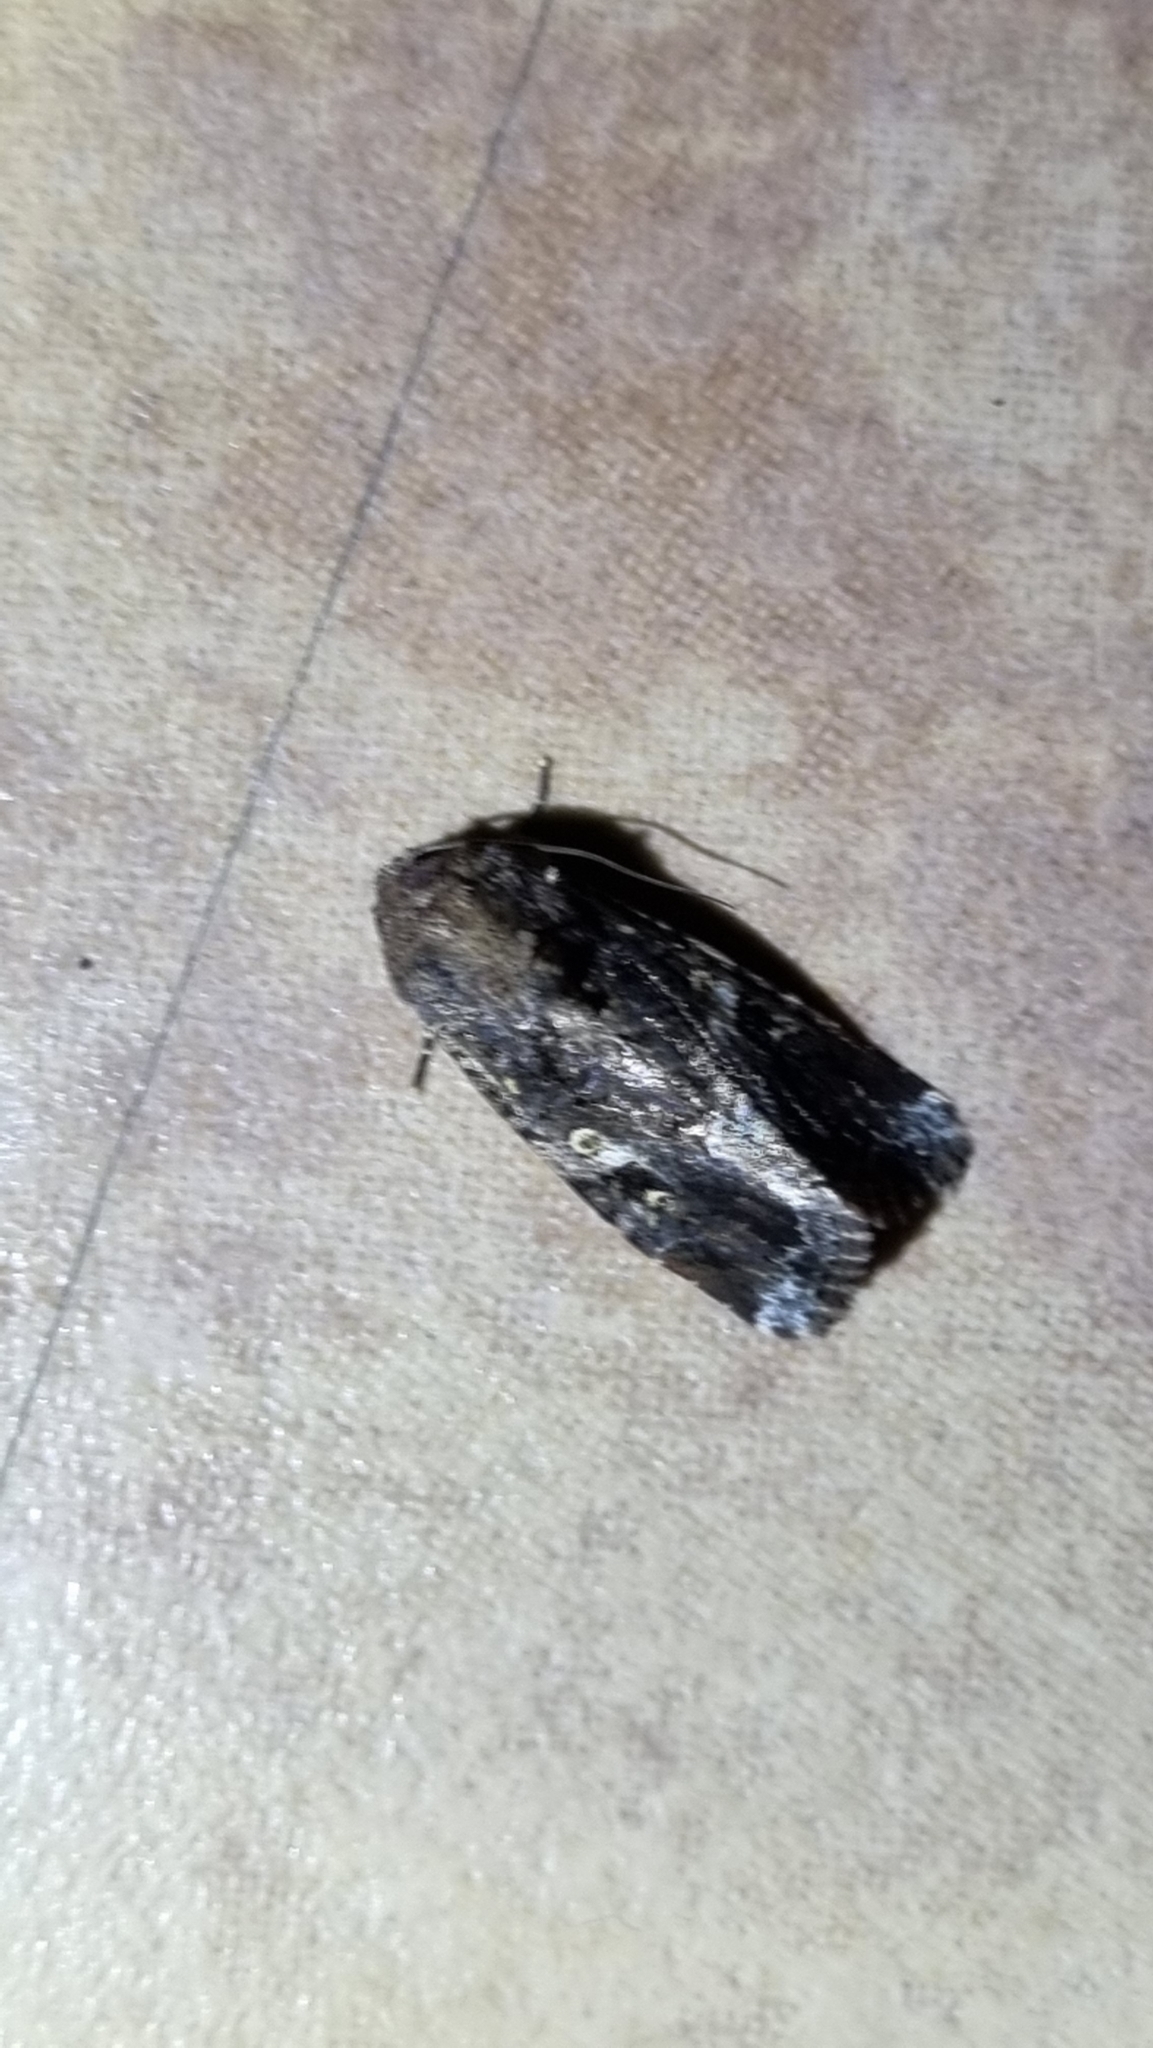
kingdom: Animalia
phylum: Arthropoda
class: Insecta
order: Lepidoptera
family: Noctuidae
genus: Spodoptera
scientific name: Spodoptera mauritia
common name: Lawn armyworm
